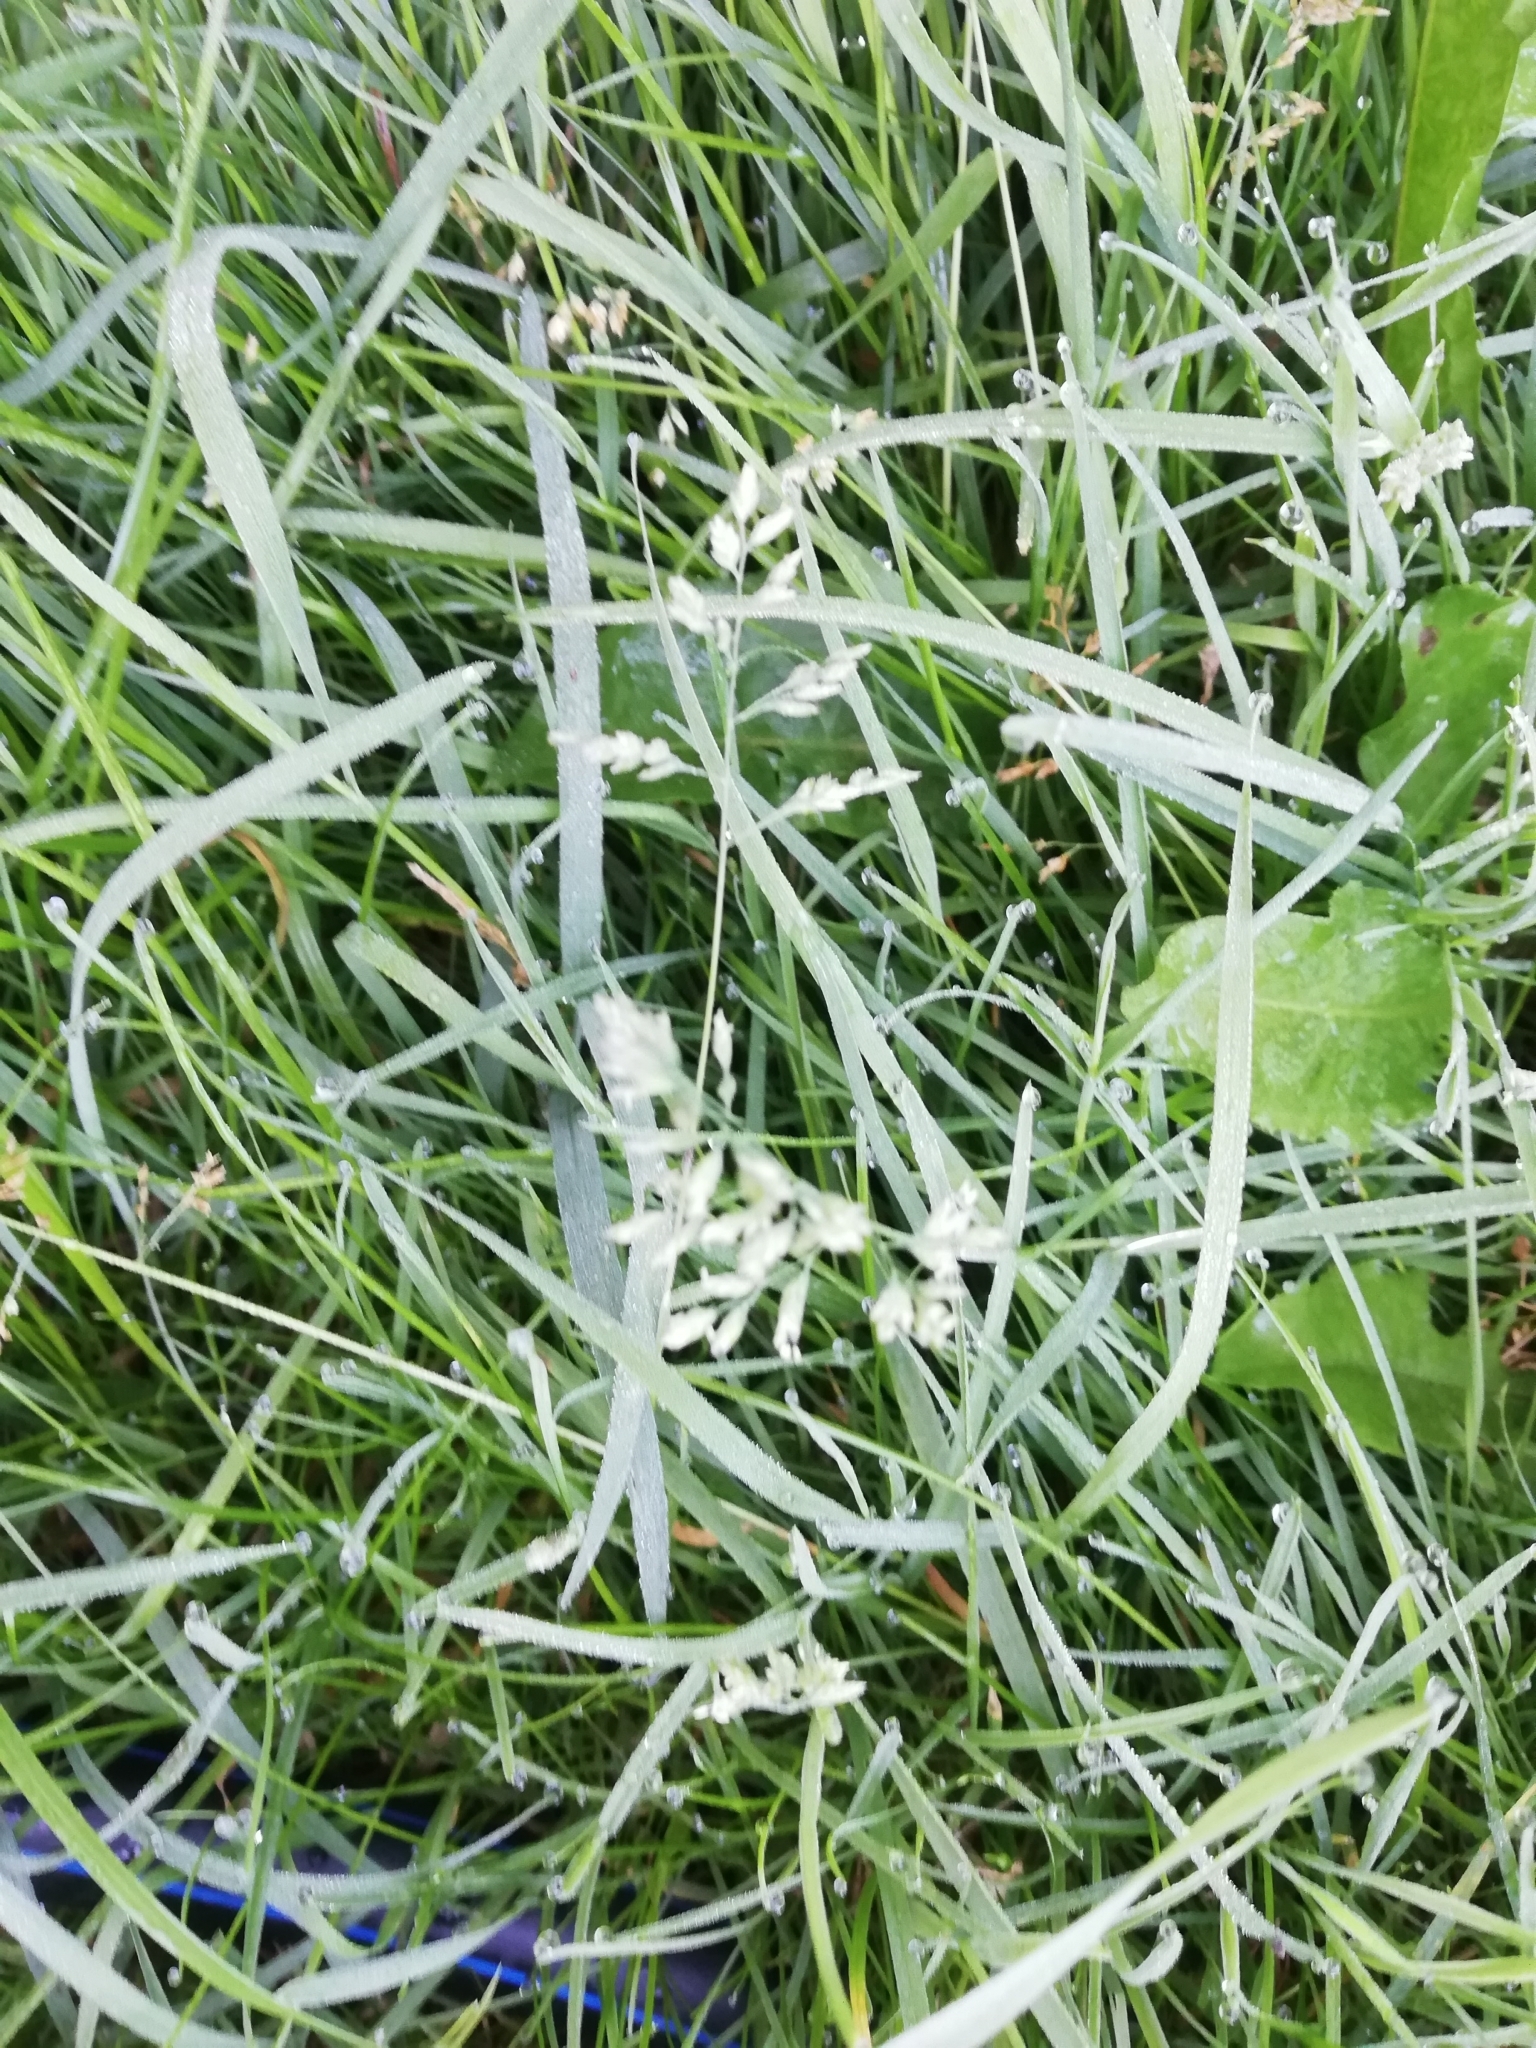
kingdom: Plantae
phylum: Tracheophyta
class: Liliopsida
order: Poales
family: Poaceae
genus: Poa
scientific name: Poa annua
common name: Annual bluegrass
